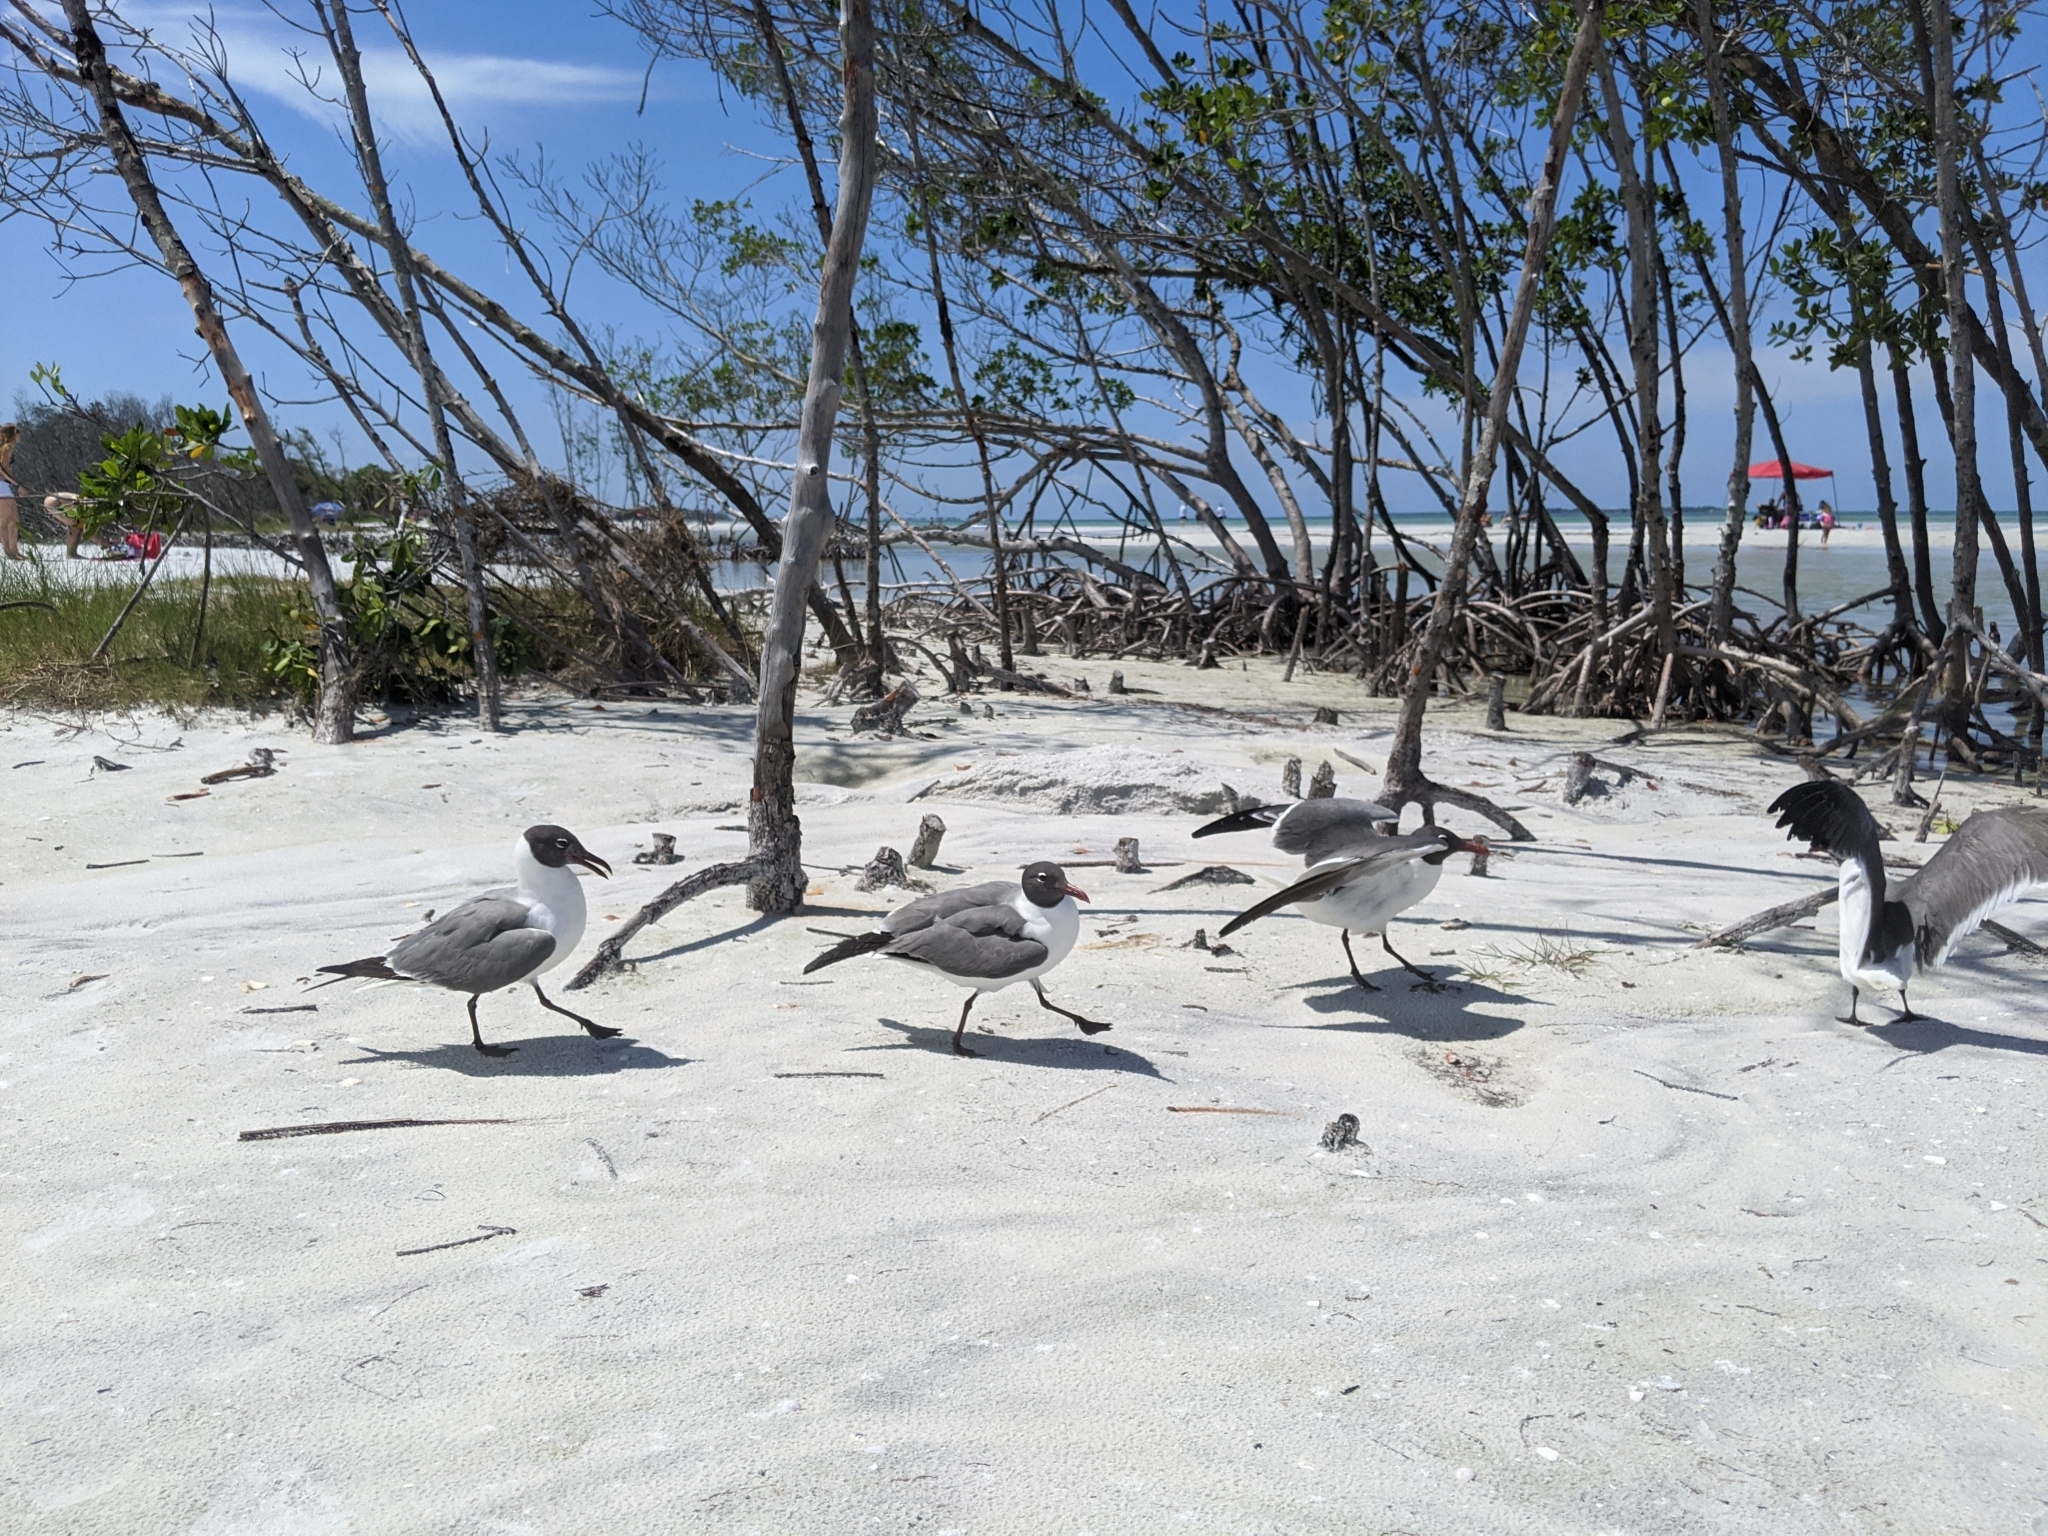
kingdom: Animalia
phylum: Chordata
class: Aves
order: Charadriiformes
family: Laridae
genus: Leucophaeus
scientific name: Leucophaeus atricilla
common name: Laughing gull
